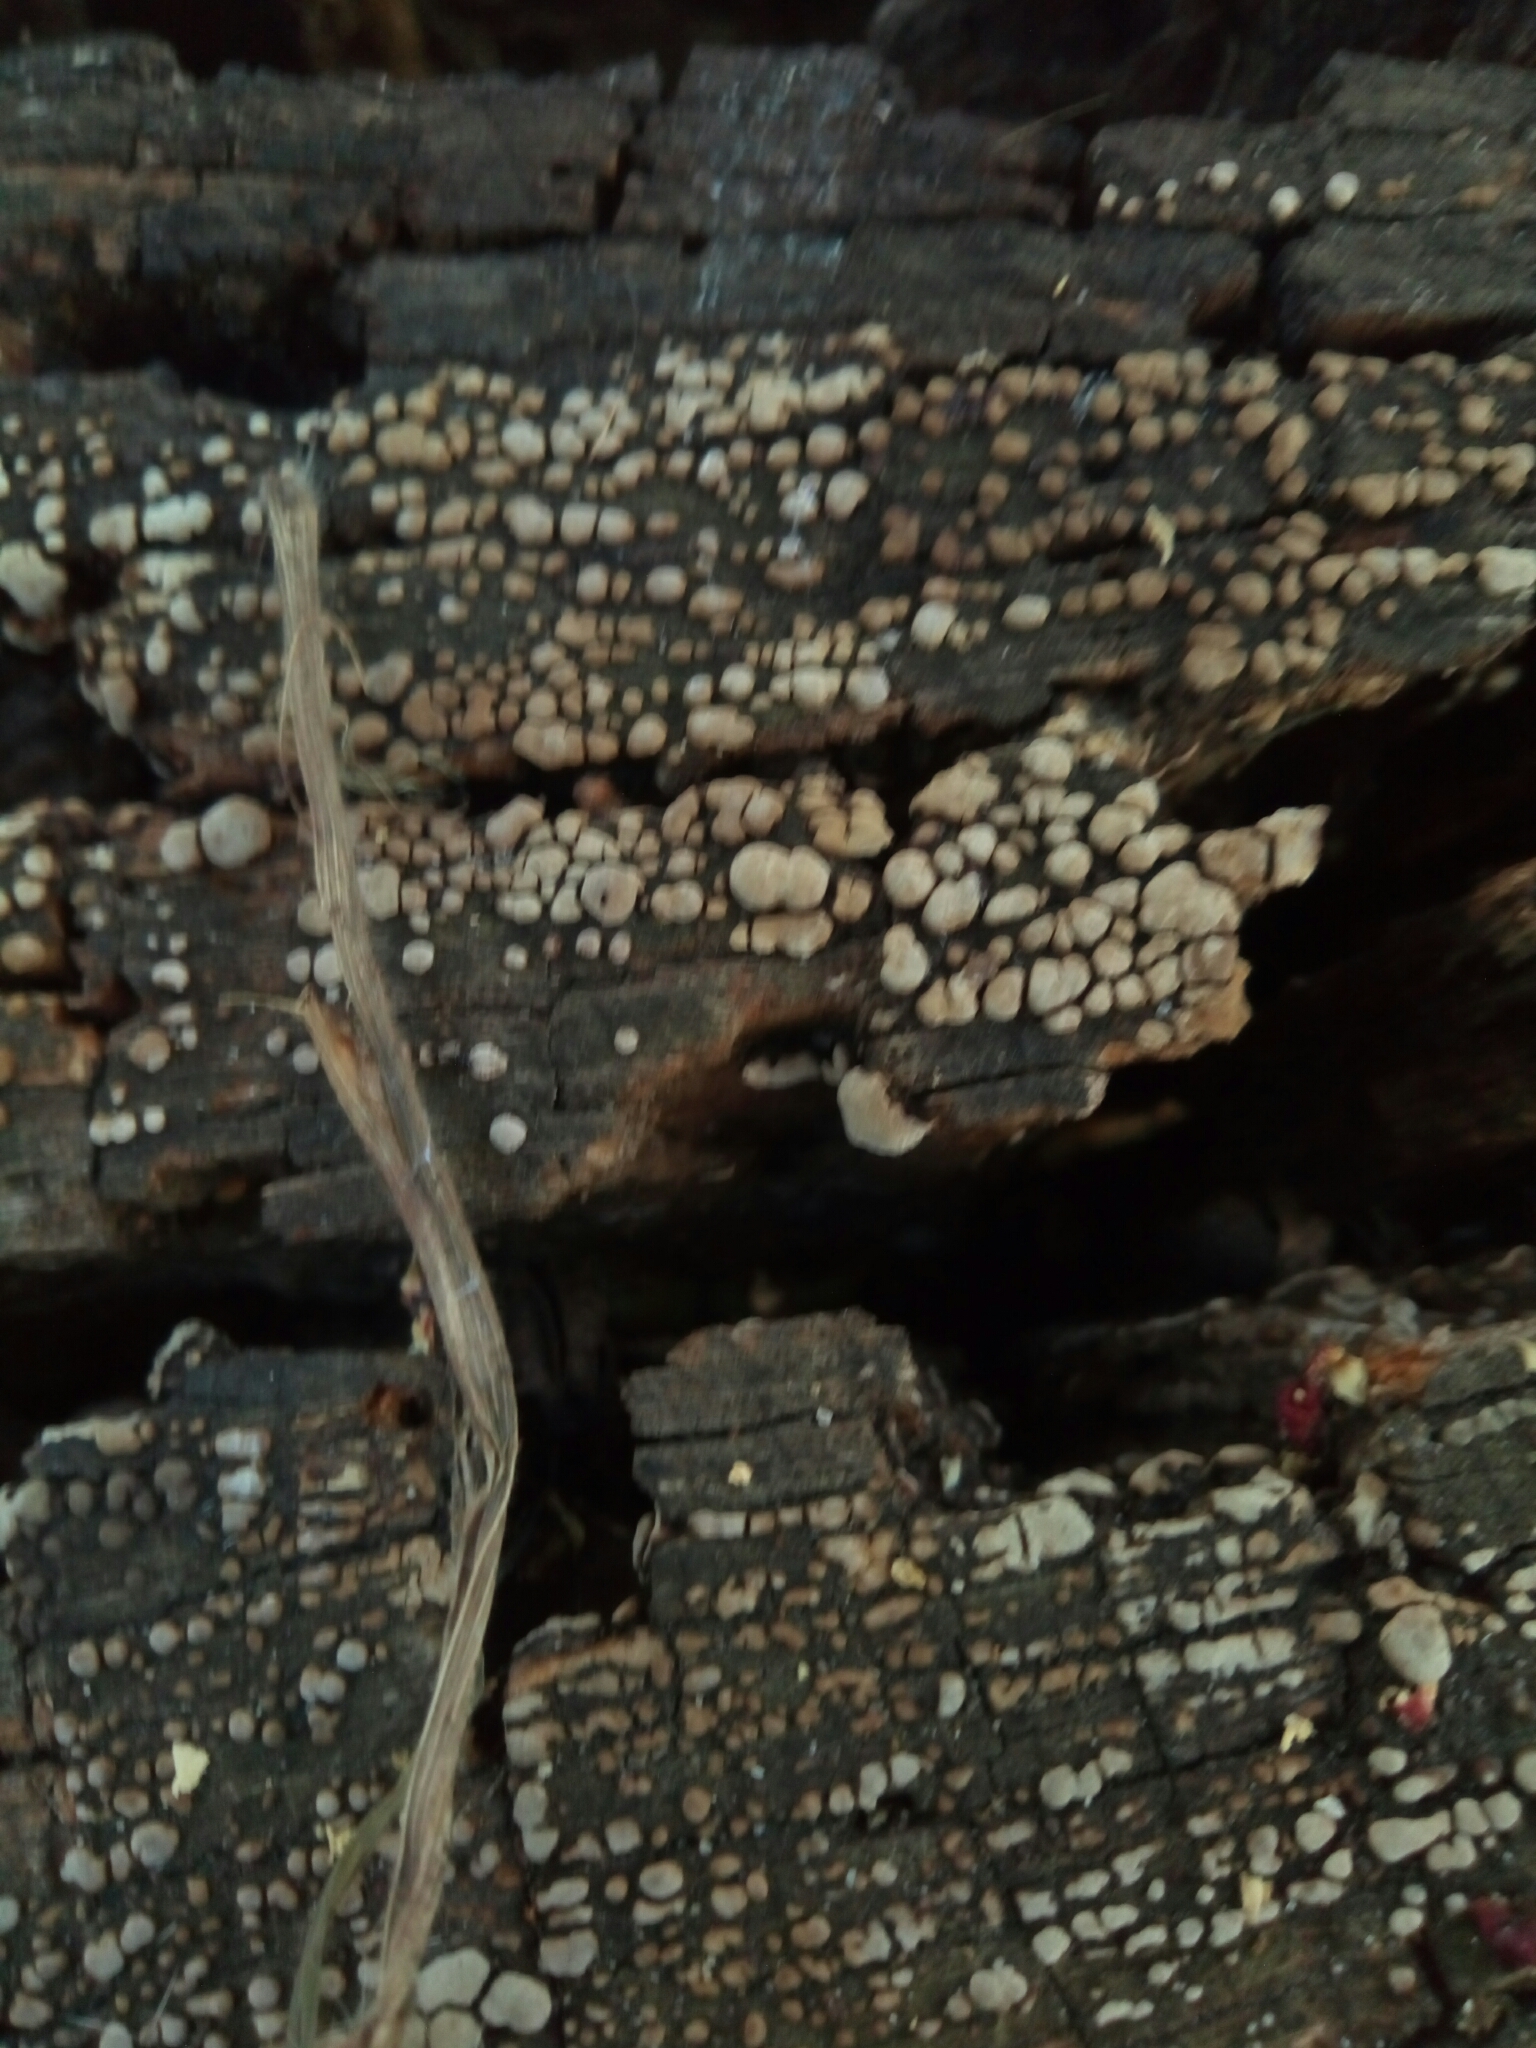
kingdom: Fungi
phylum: Basidiomycota
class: Agaricomycetes
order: Russulales
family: Stereaceae
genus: Xylobolus
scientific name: Xylobolus frustulatus
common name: Ceramic parchment
